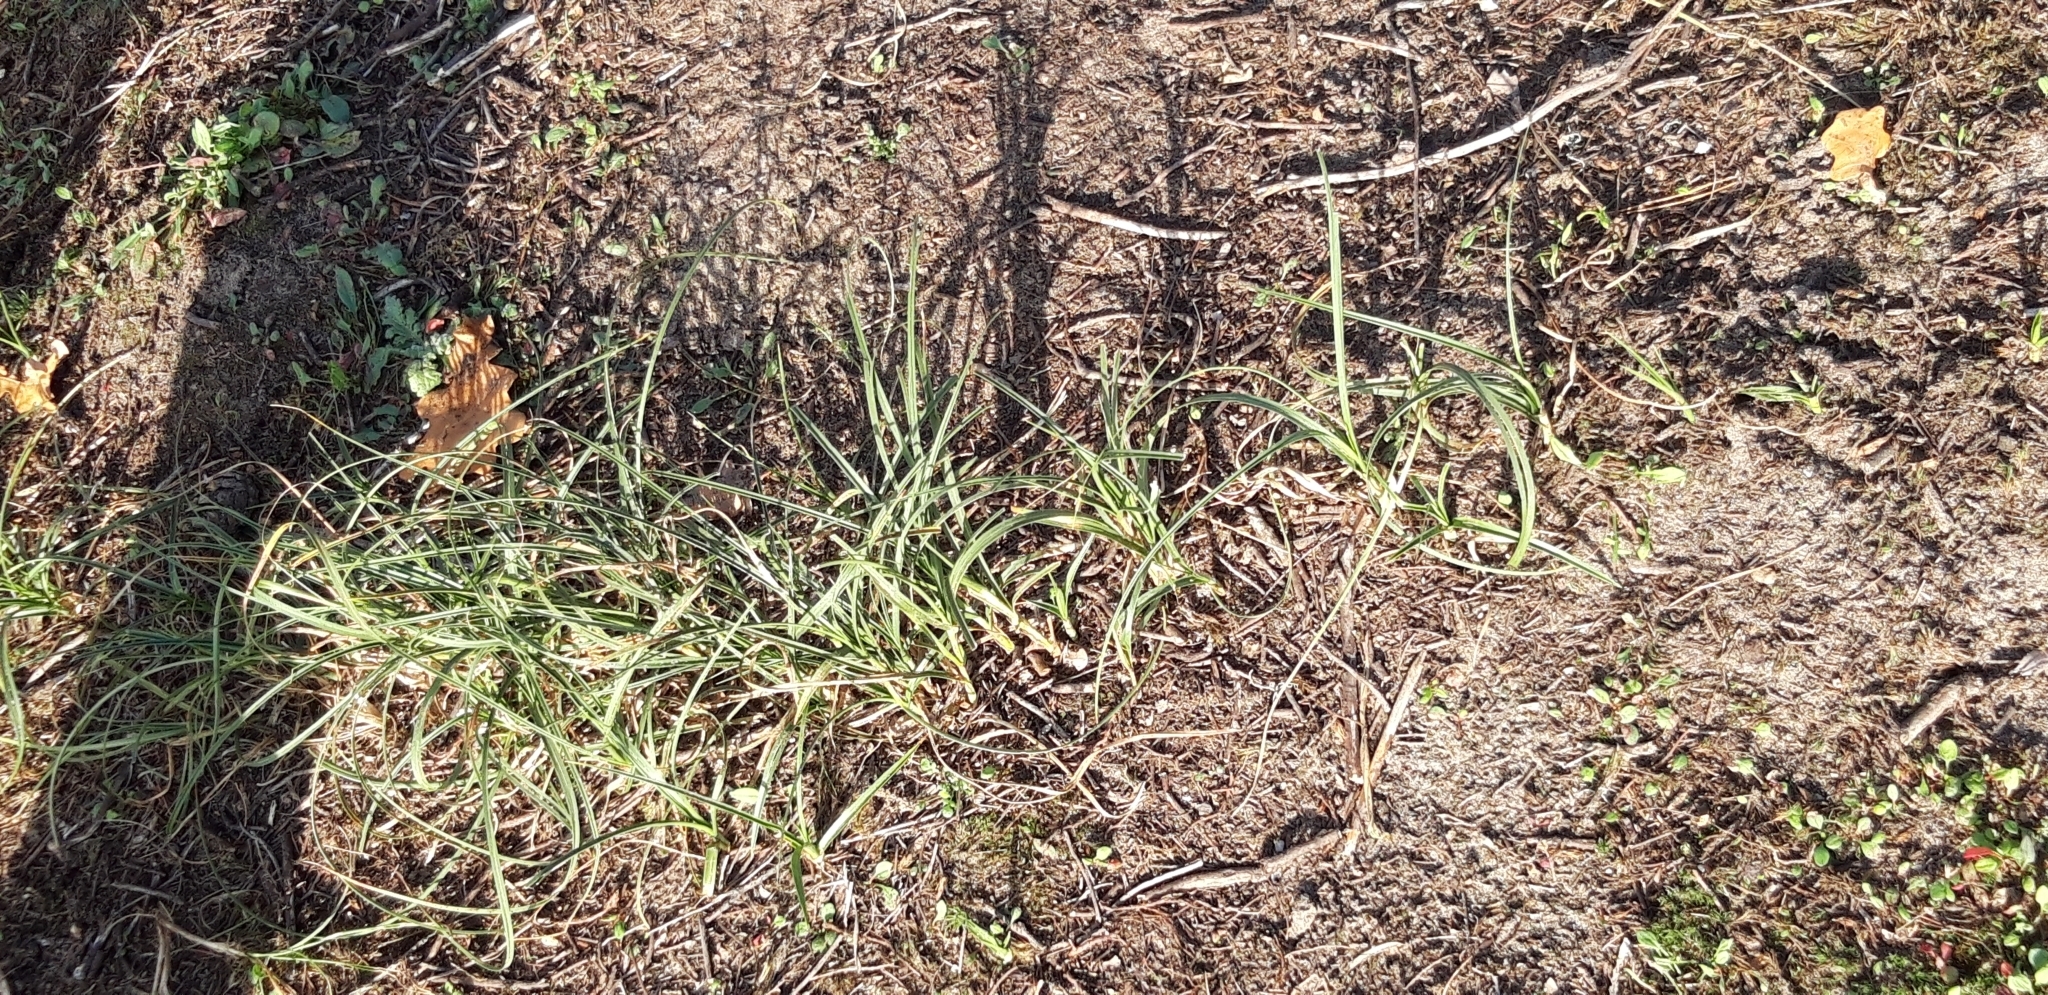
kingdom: Plantae
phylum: Tracheophyta
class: Liliopsida
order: Poales
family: Cyperaceae
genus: Carex
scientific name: Carex arenaria
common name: Sand sedge
